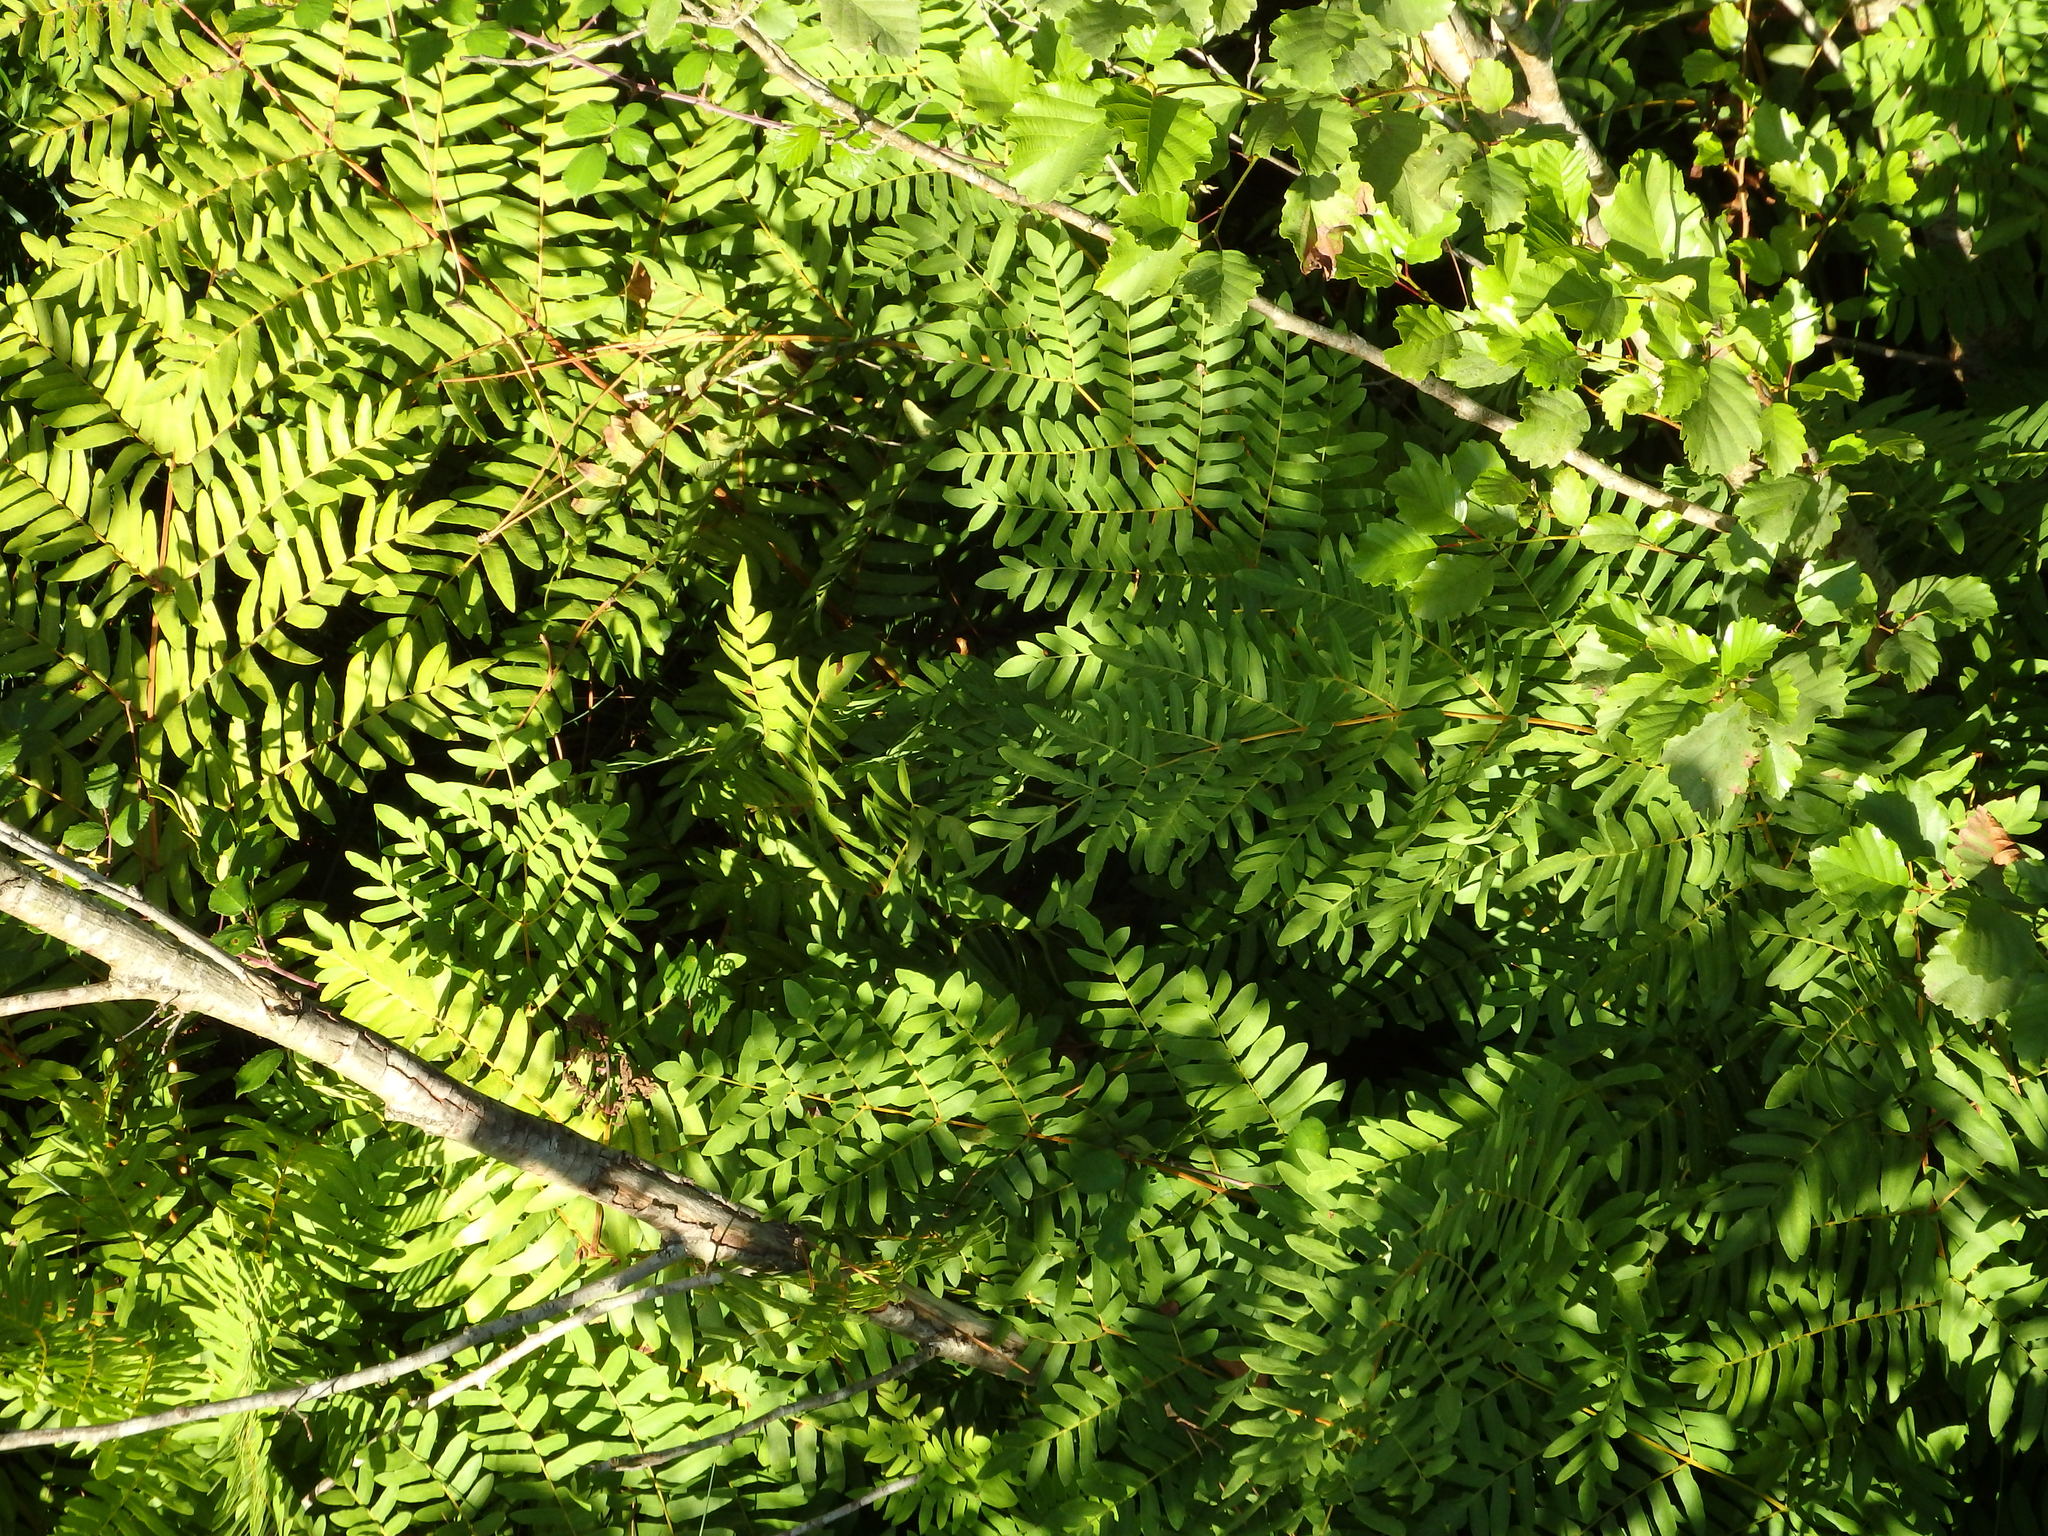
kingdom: Plantae
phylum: Tracheophyta
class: Polypodiopsida
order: Osmundales
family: Osmundaceae
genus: Osmunda
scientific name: Osmunda regalis
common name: Royal fern
